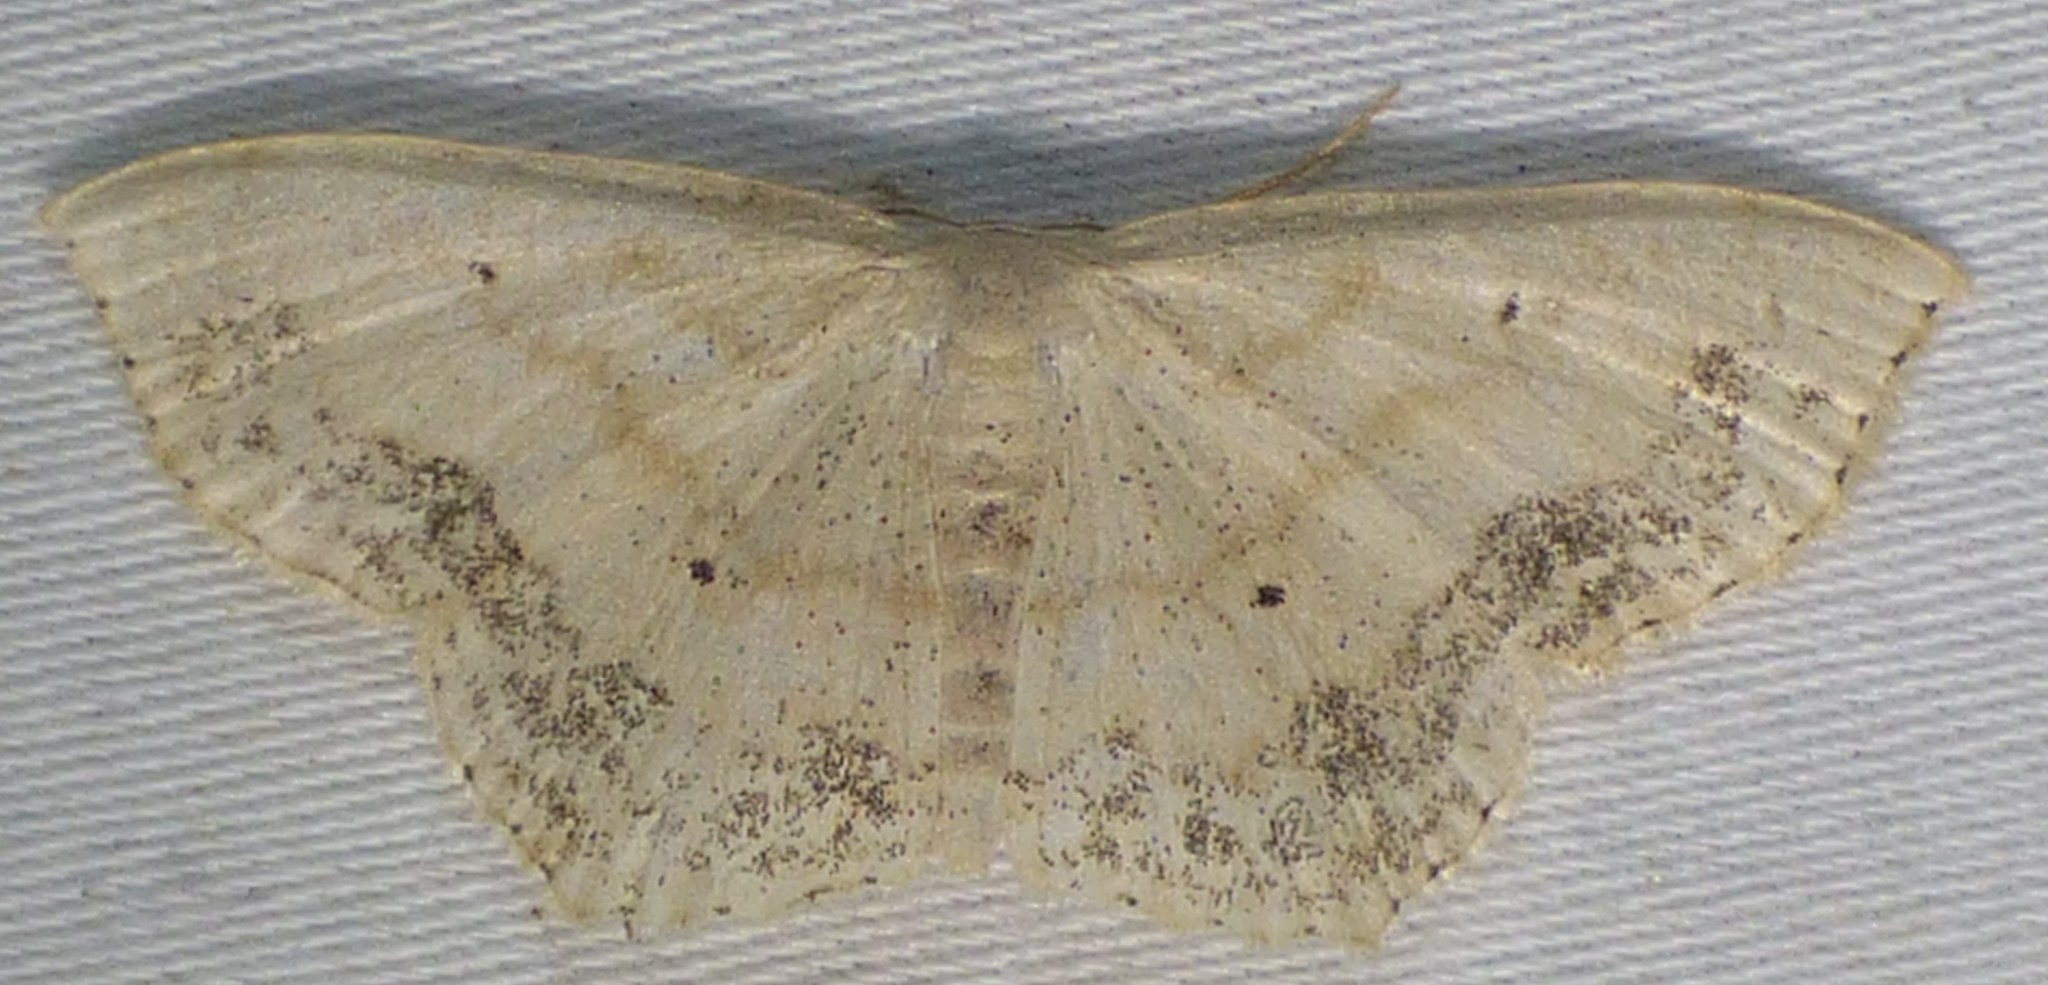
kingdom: Animalia
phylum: Arthropoda
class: Insecta
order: Lepidoptera
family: Geometridae
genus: Scopula
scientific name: Scopula limboundata
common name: Large lace border
